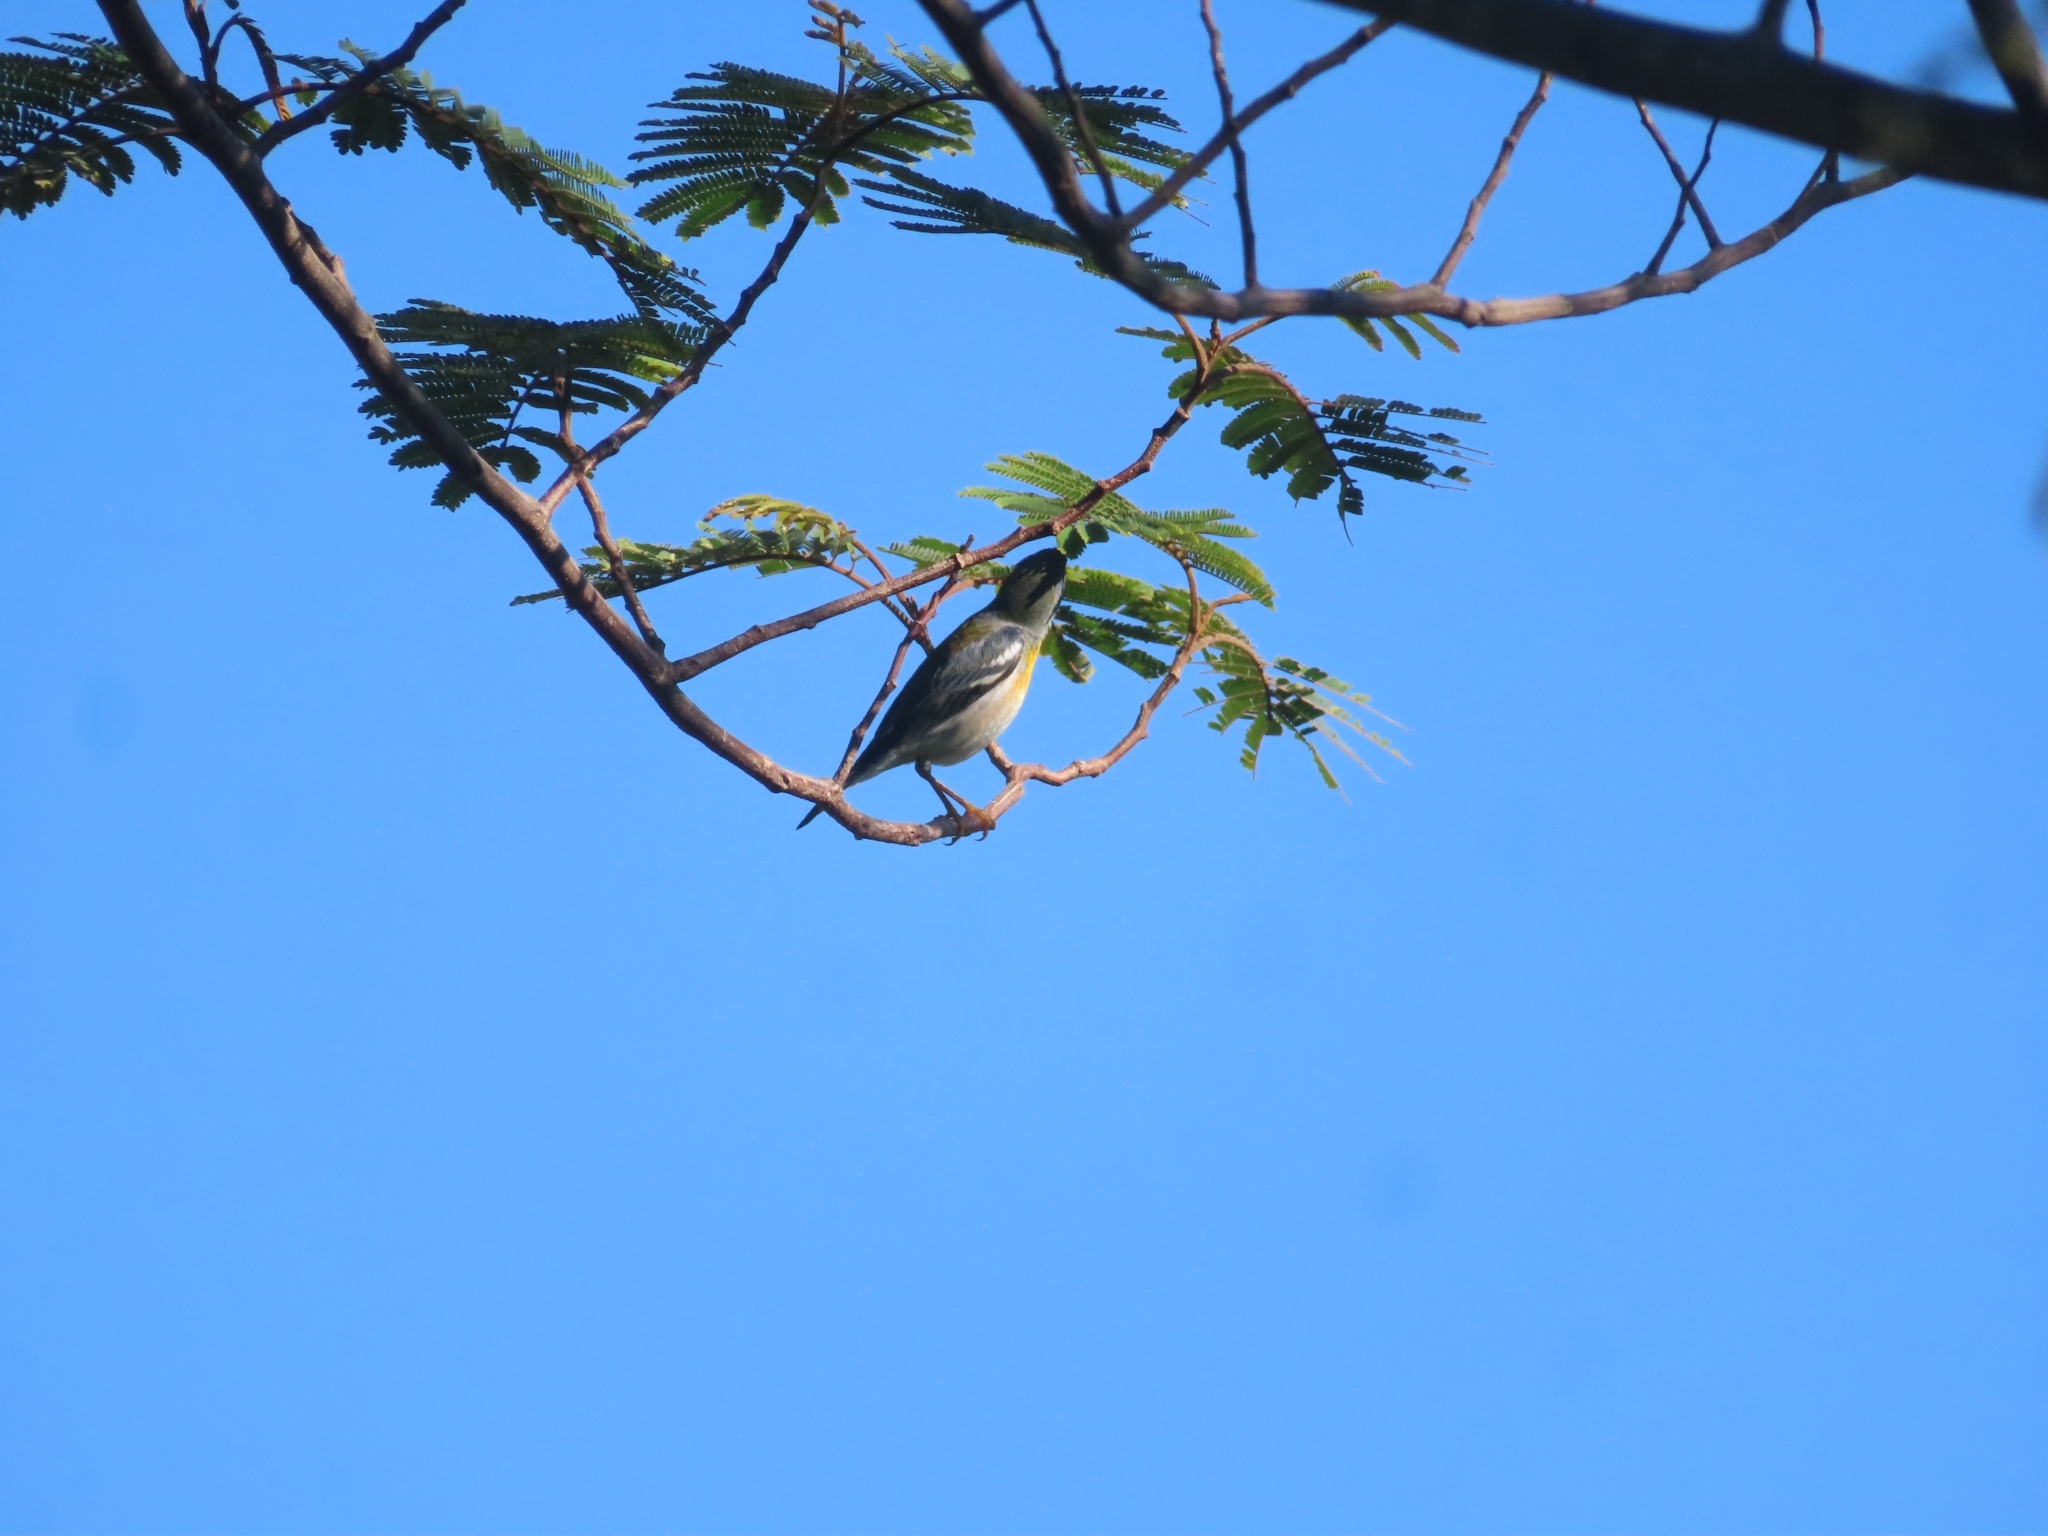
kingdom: Animalia
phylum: Chordata
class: Aves
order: Passeriformes
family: Parulidae
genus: Setophaga
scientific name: Setophaga americana
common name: Northern parula
